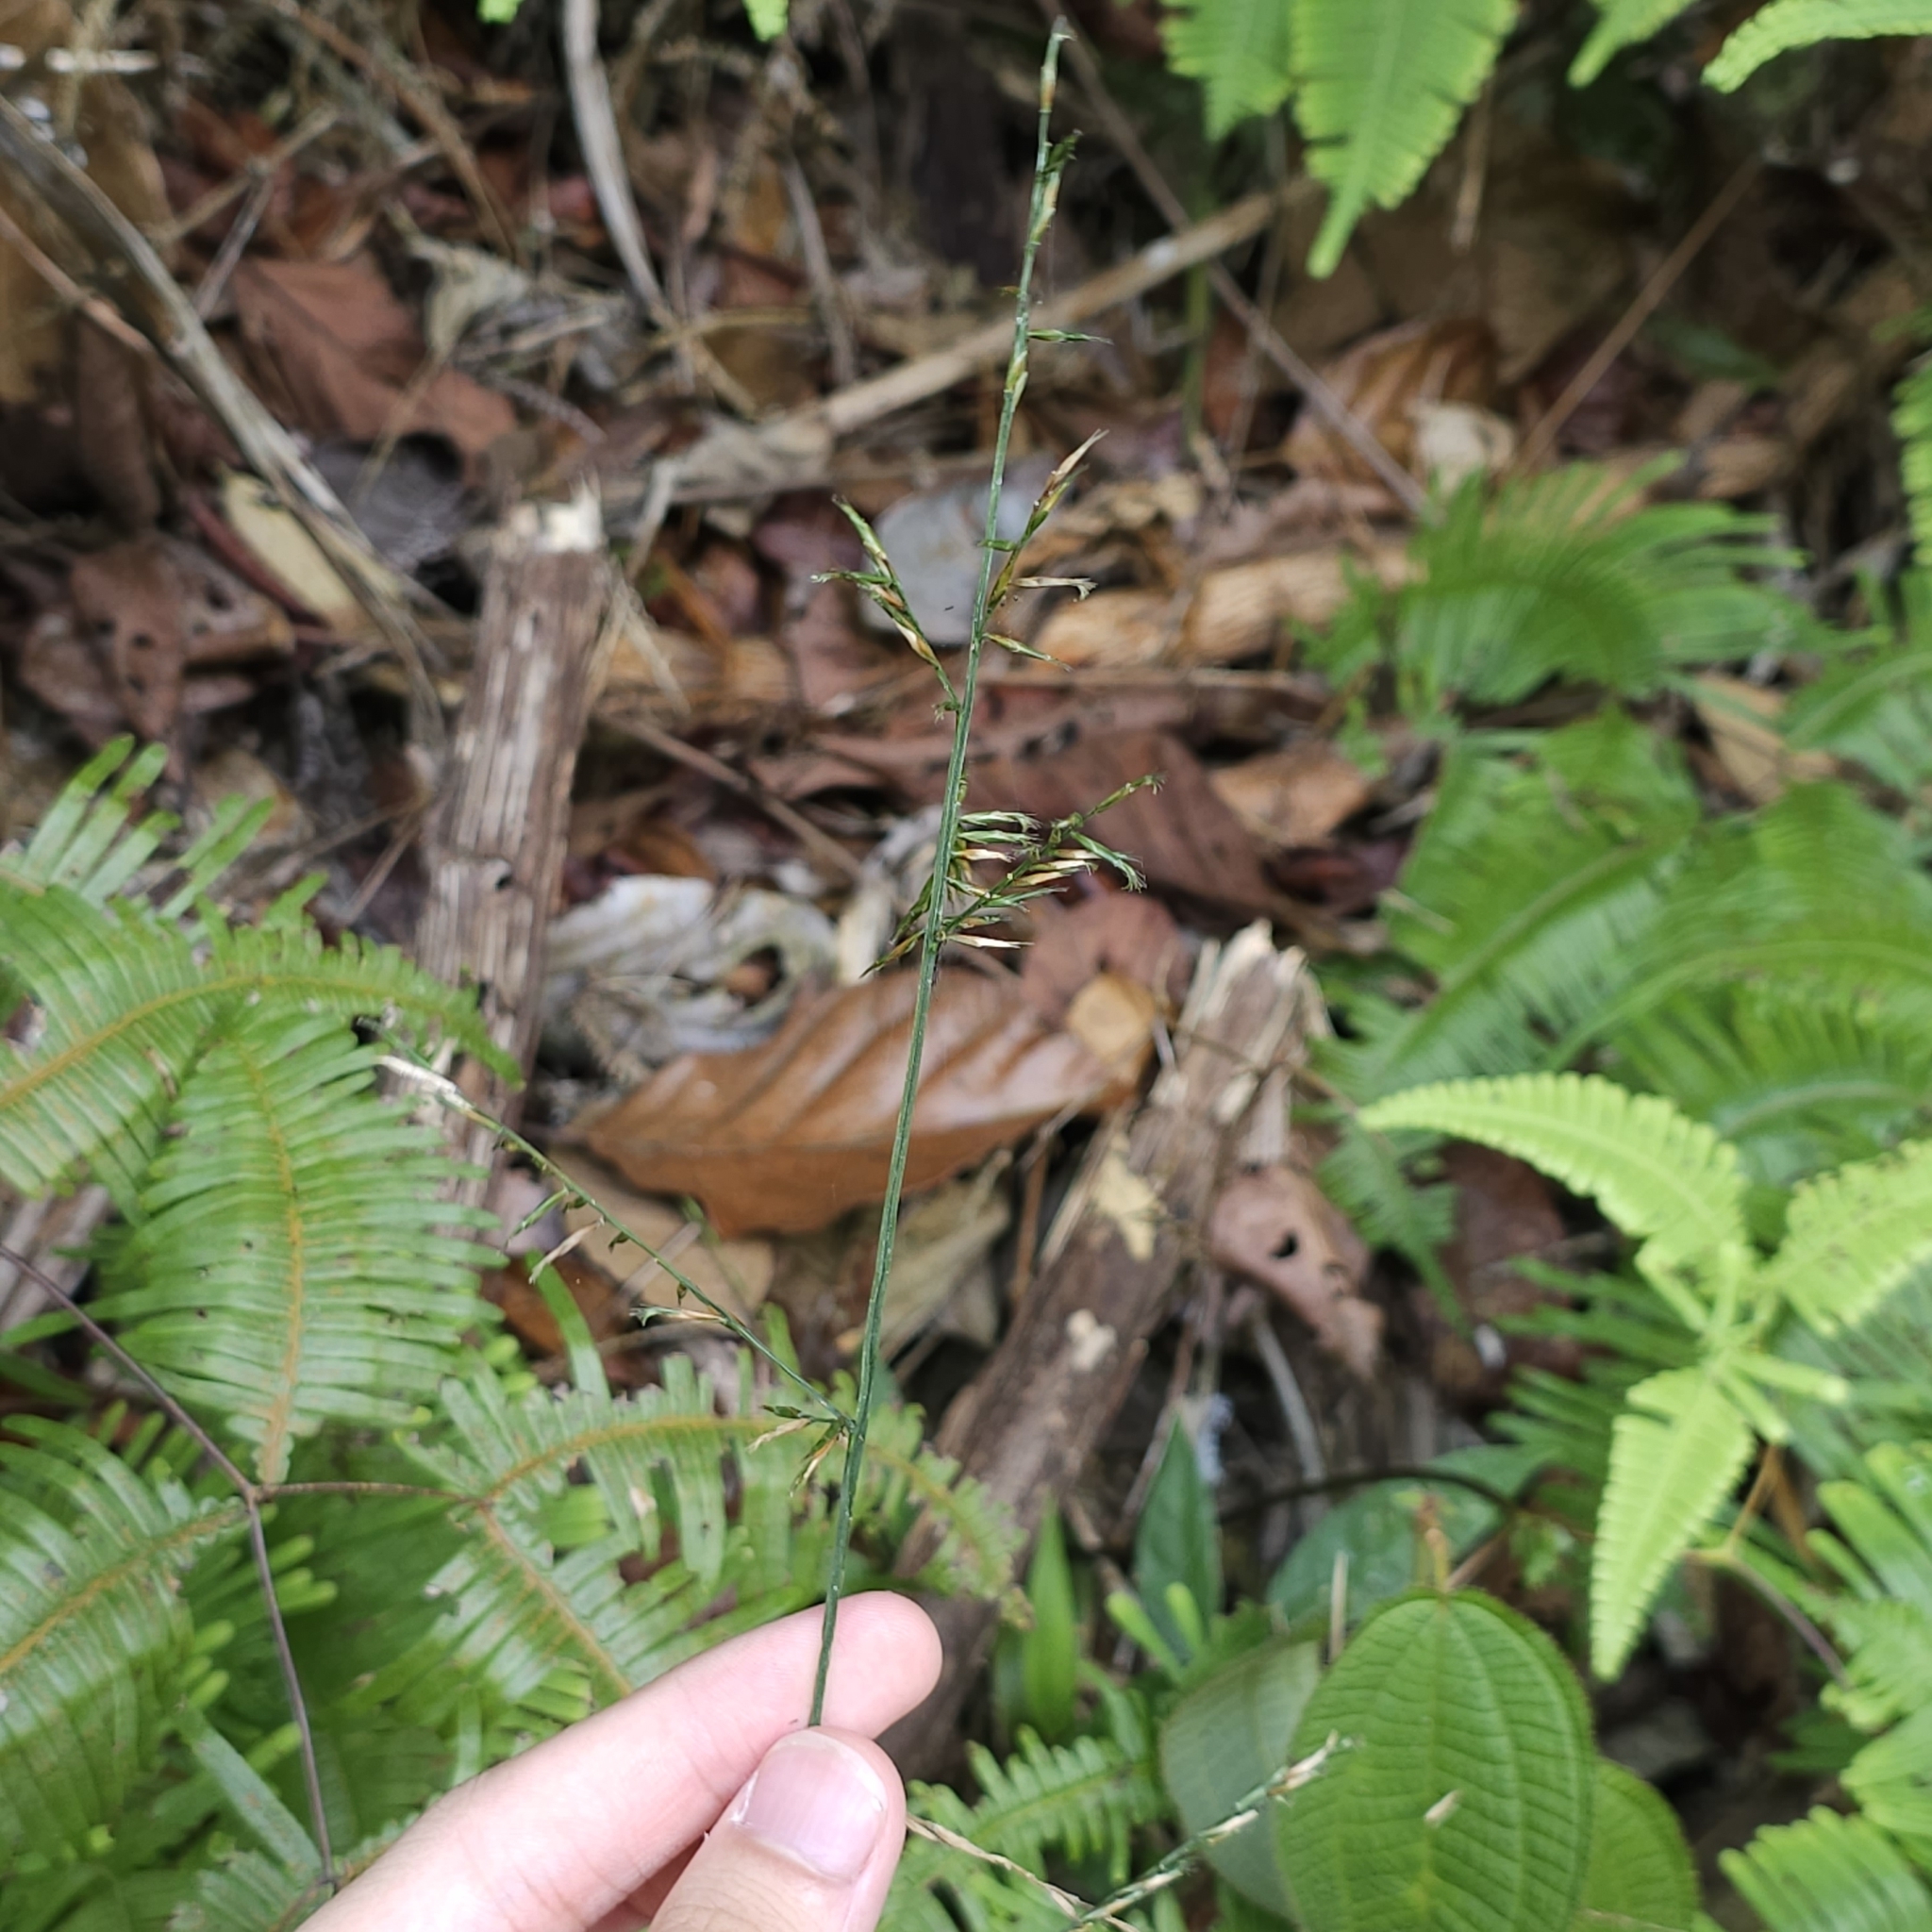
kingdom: Plantae
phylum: Tracheophyta
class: Liliopsida
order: Poales
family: Poaceae
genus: Lophatherum
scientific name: Lophatherum gracile
